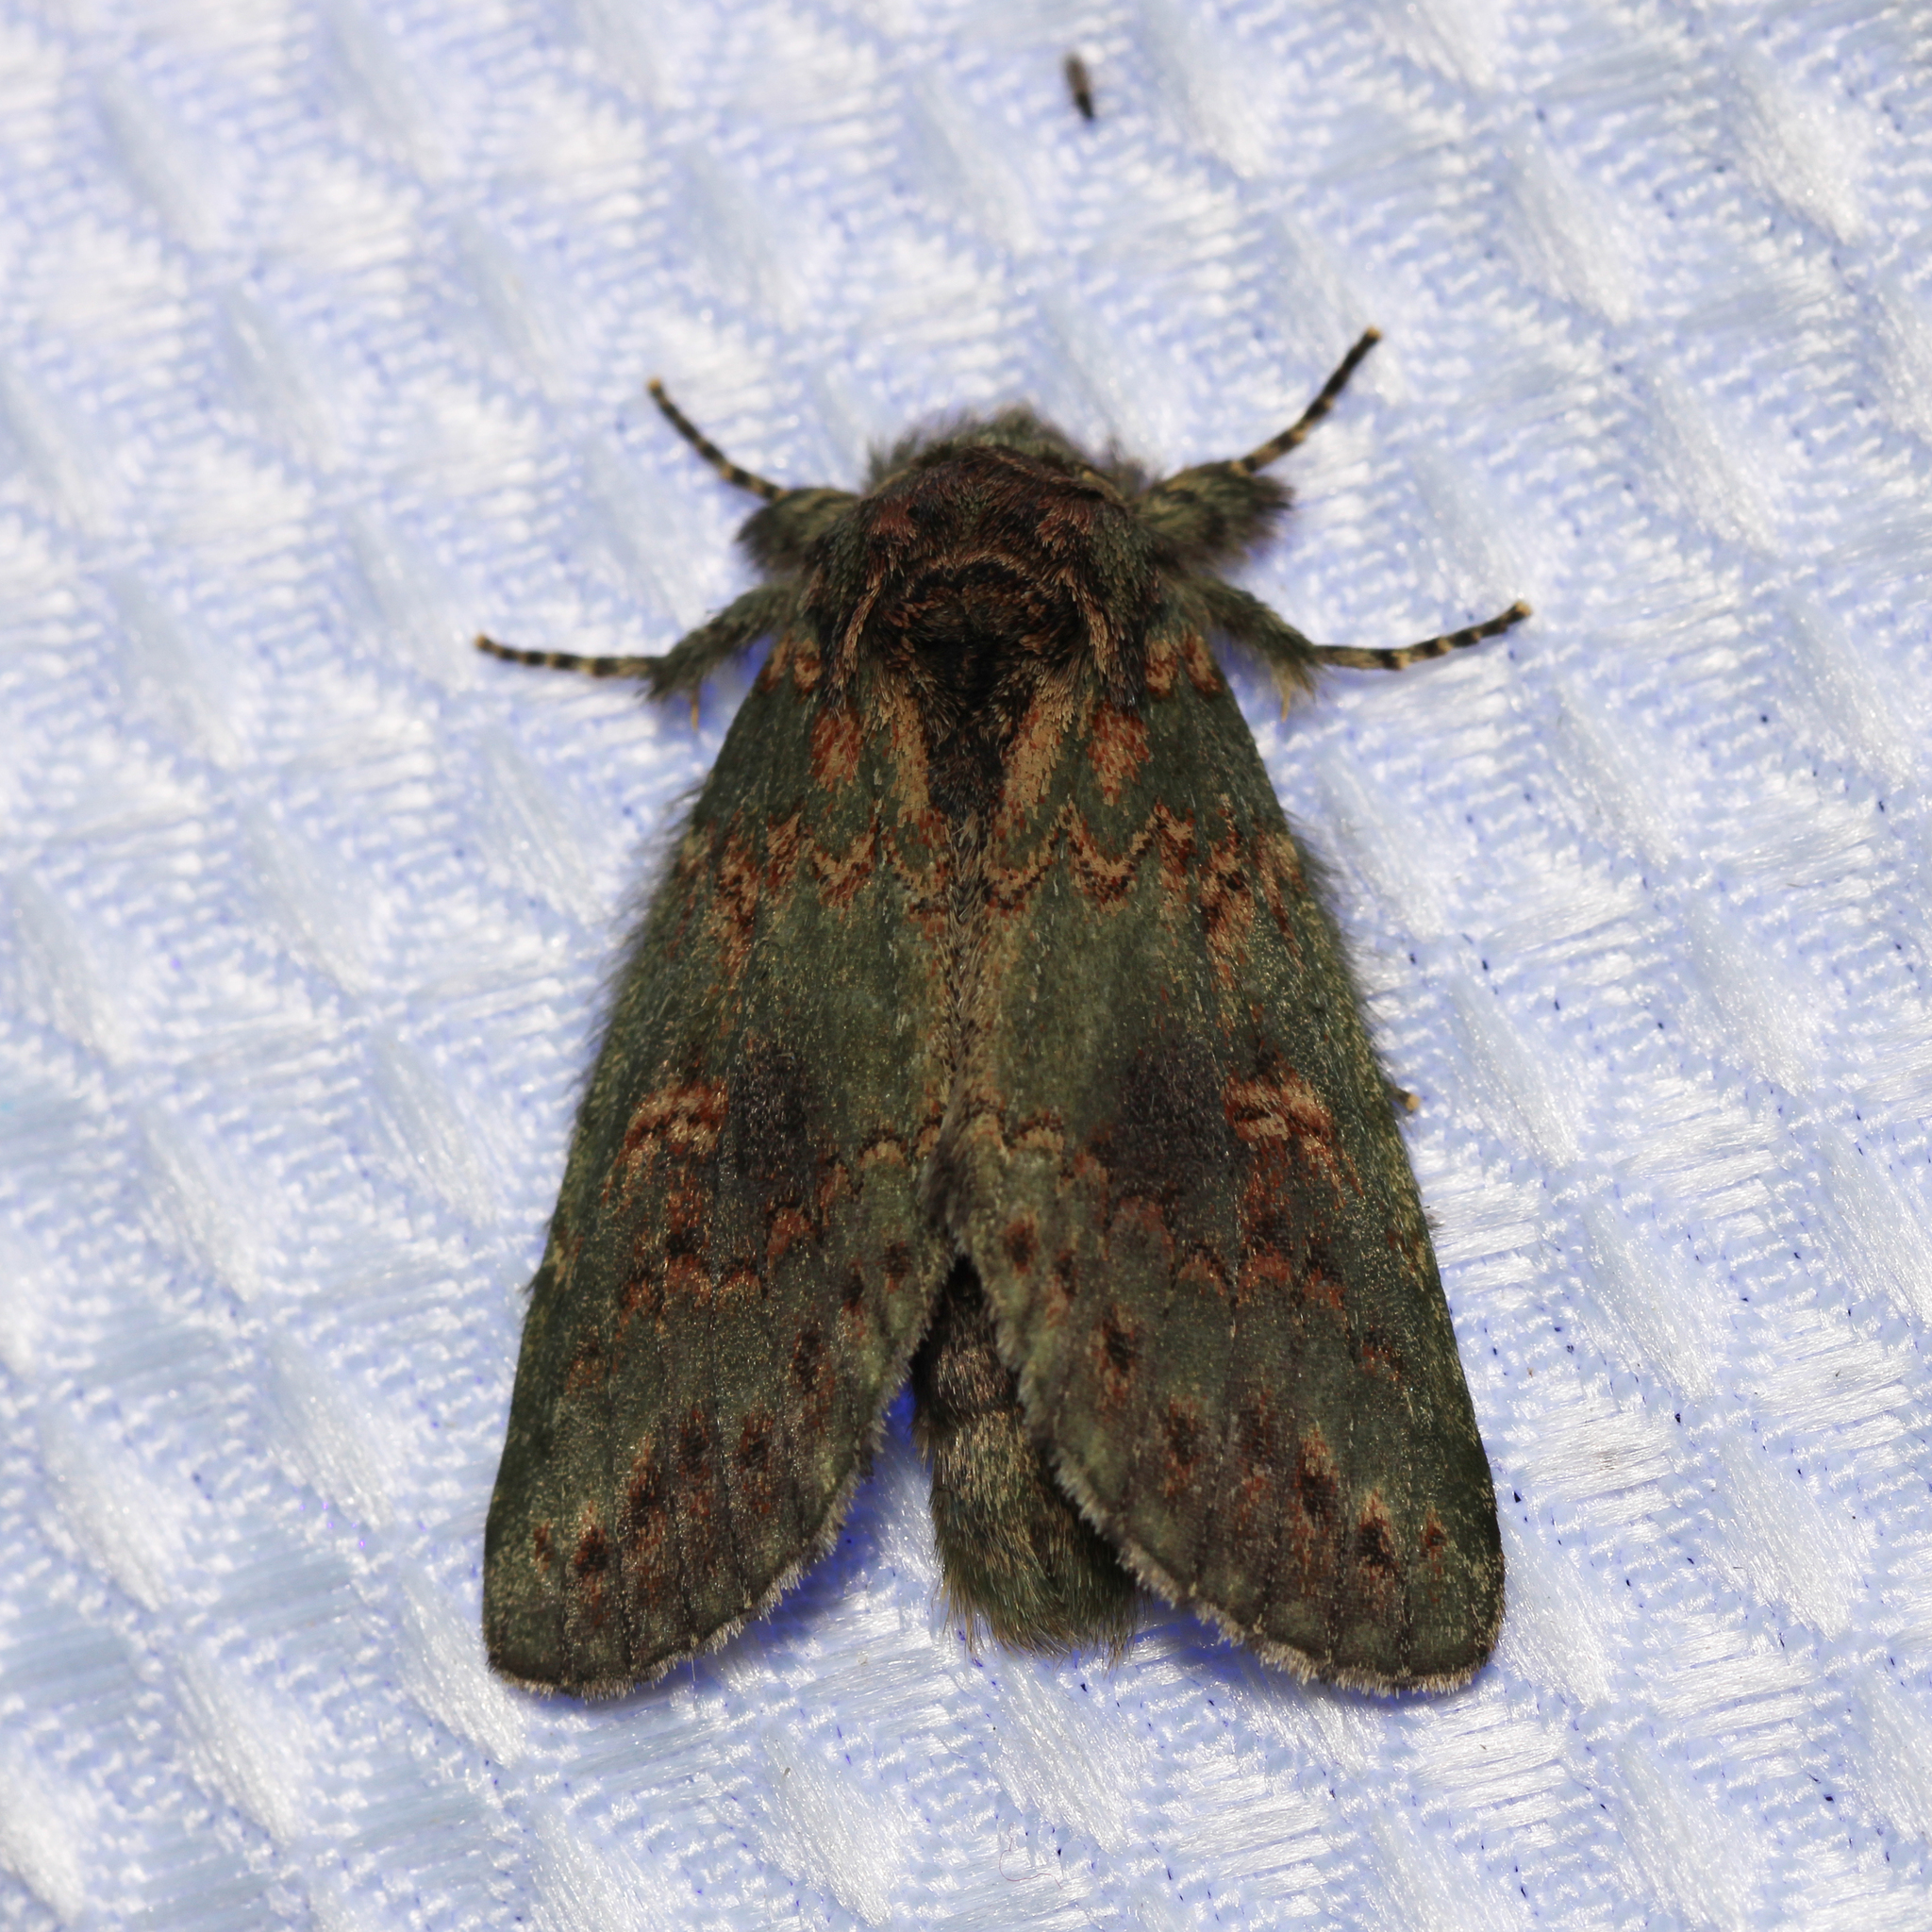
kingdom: Animalia
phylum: Arthropoda
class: Insecta
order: Lepidoptera
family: Notodontidae
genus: Disphragis
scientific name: Disphragis Cecrita biundata
